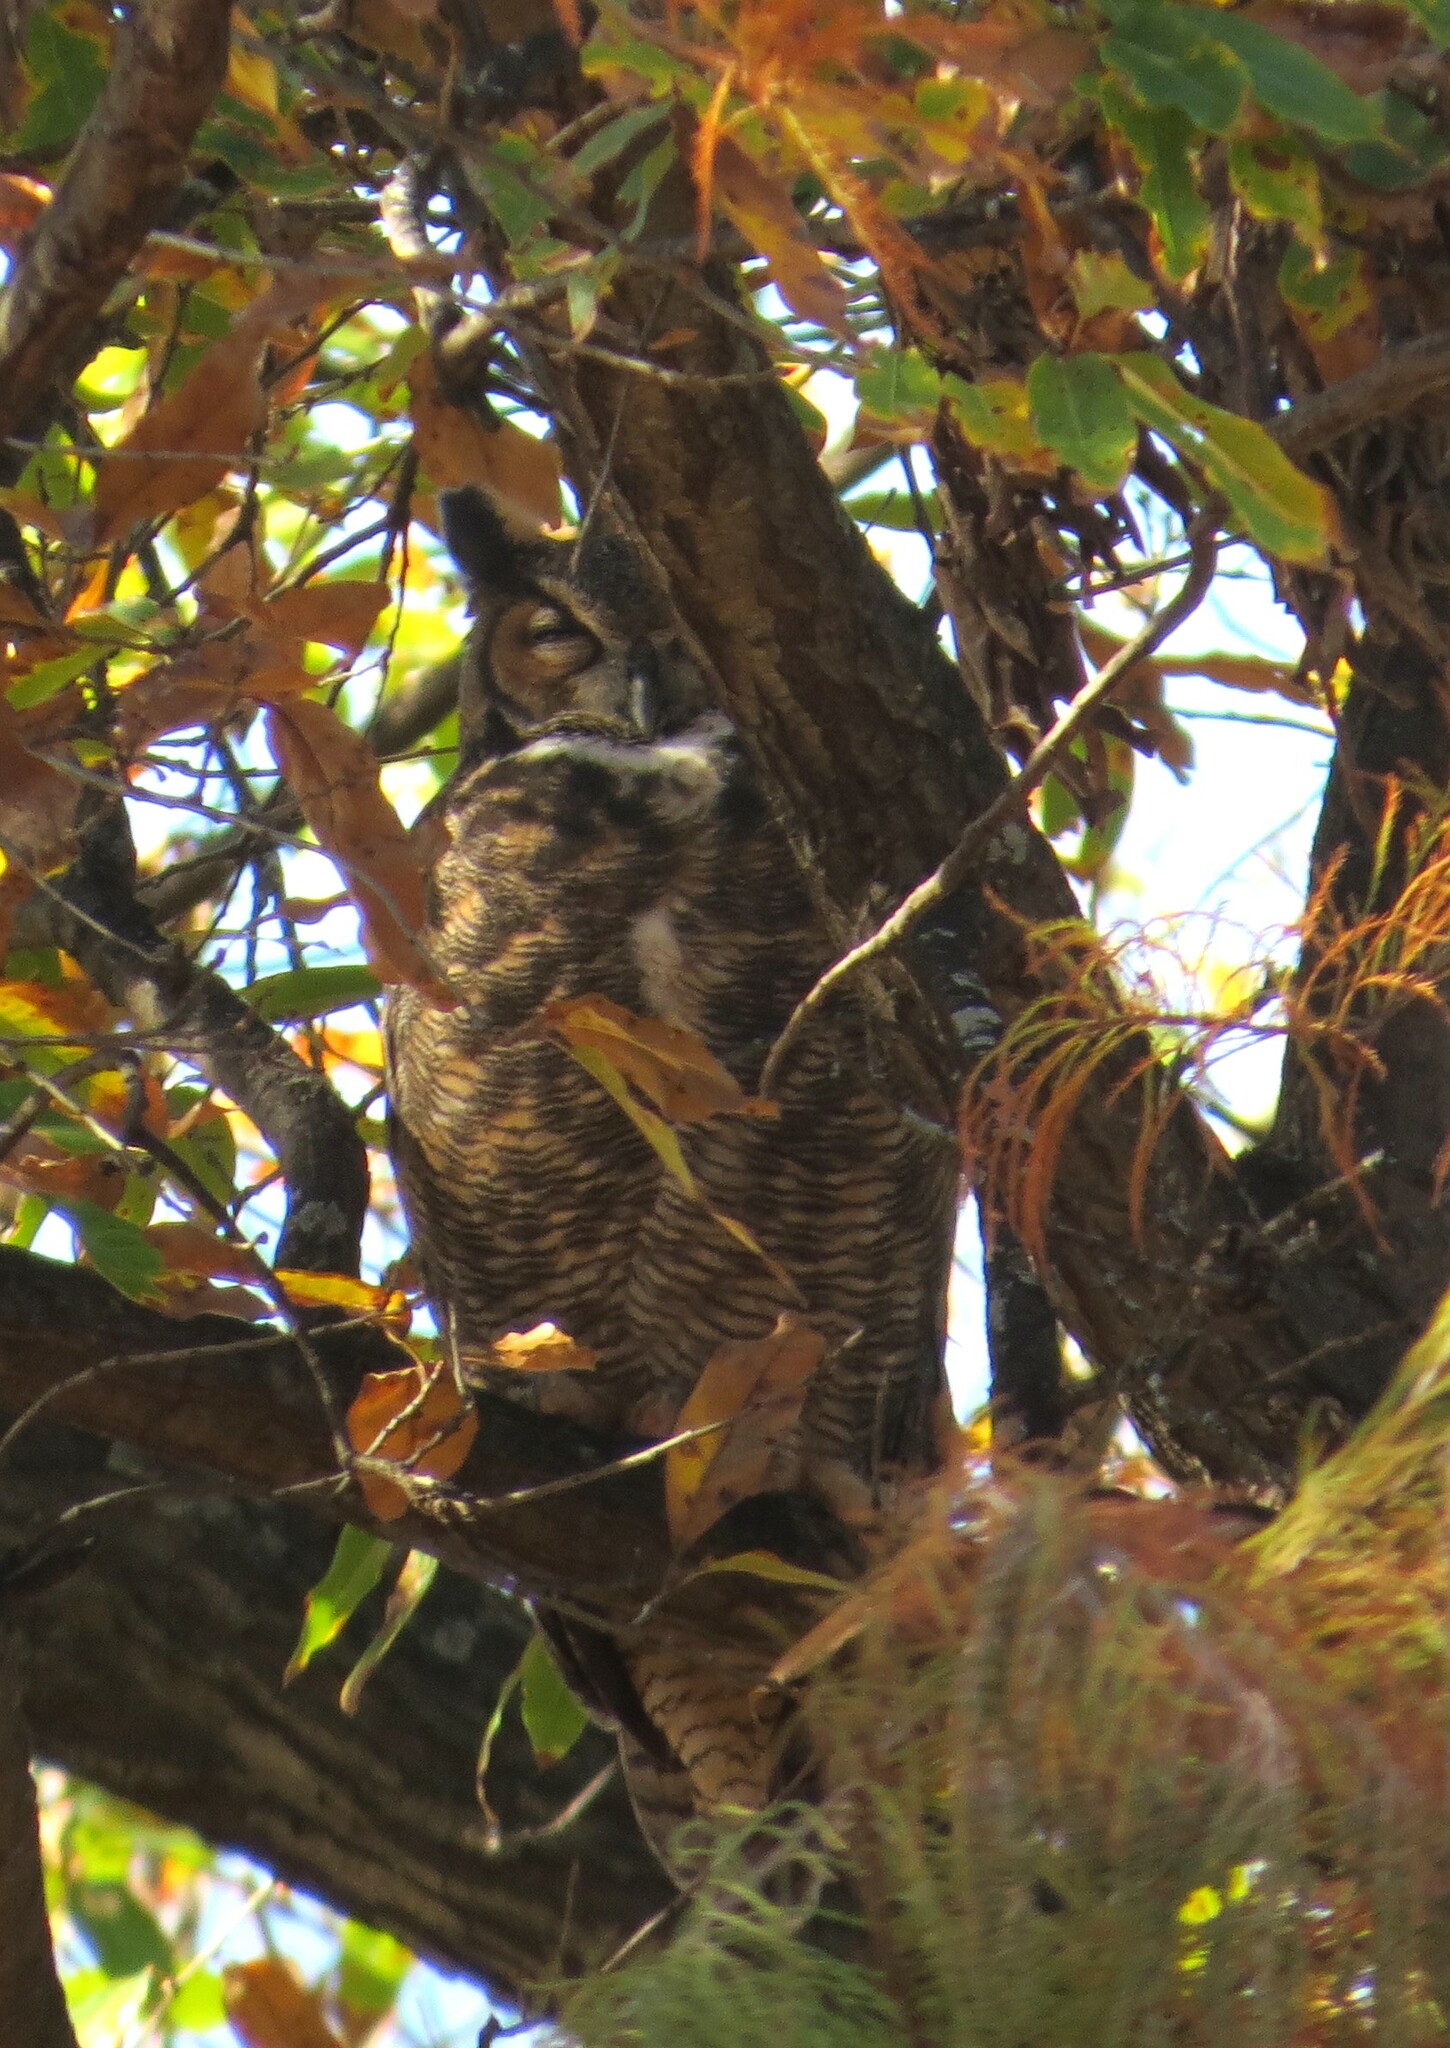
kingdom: Animalia
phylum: Chordata
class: Aves
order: Strigiformes
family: Strigidae
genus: Bubo
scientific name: Bubo virginianus
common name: Great horned owl
